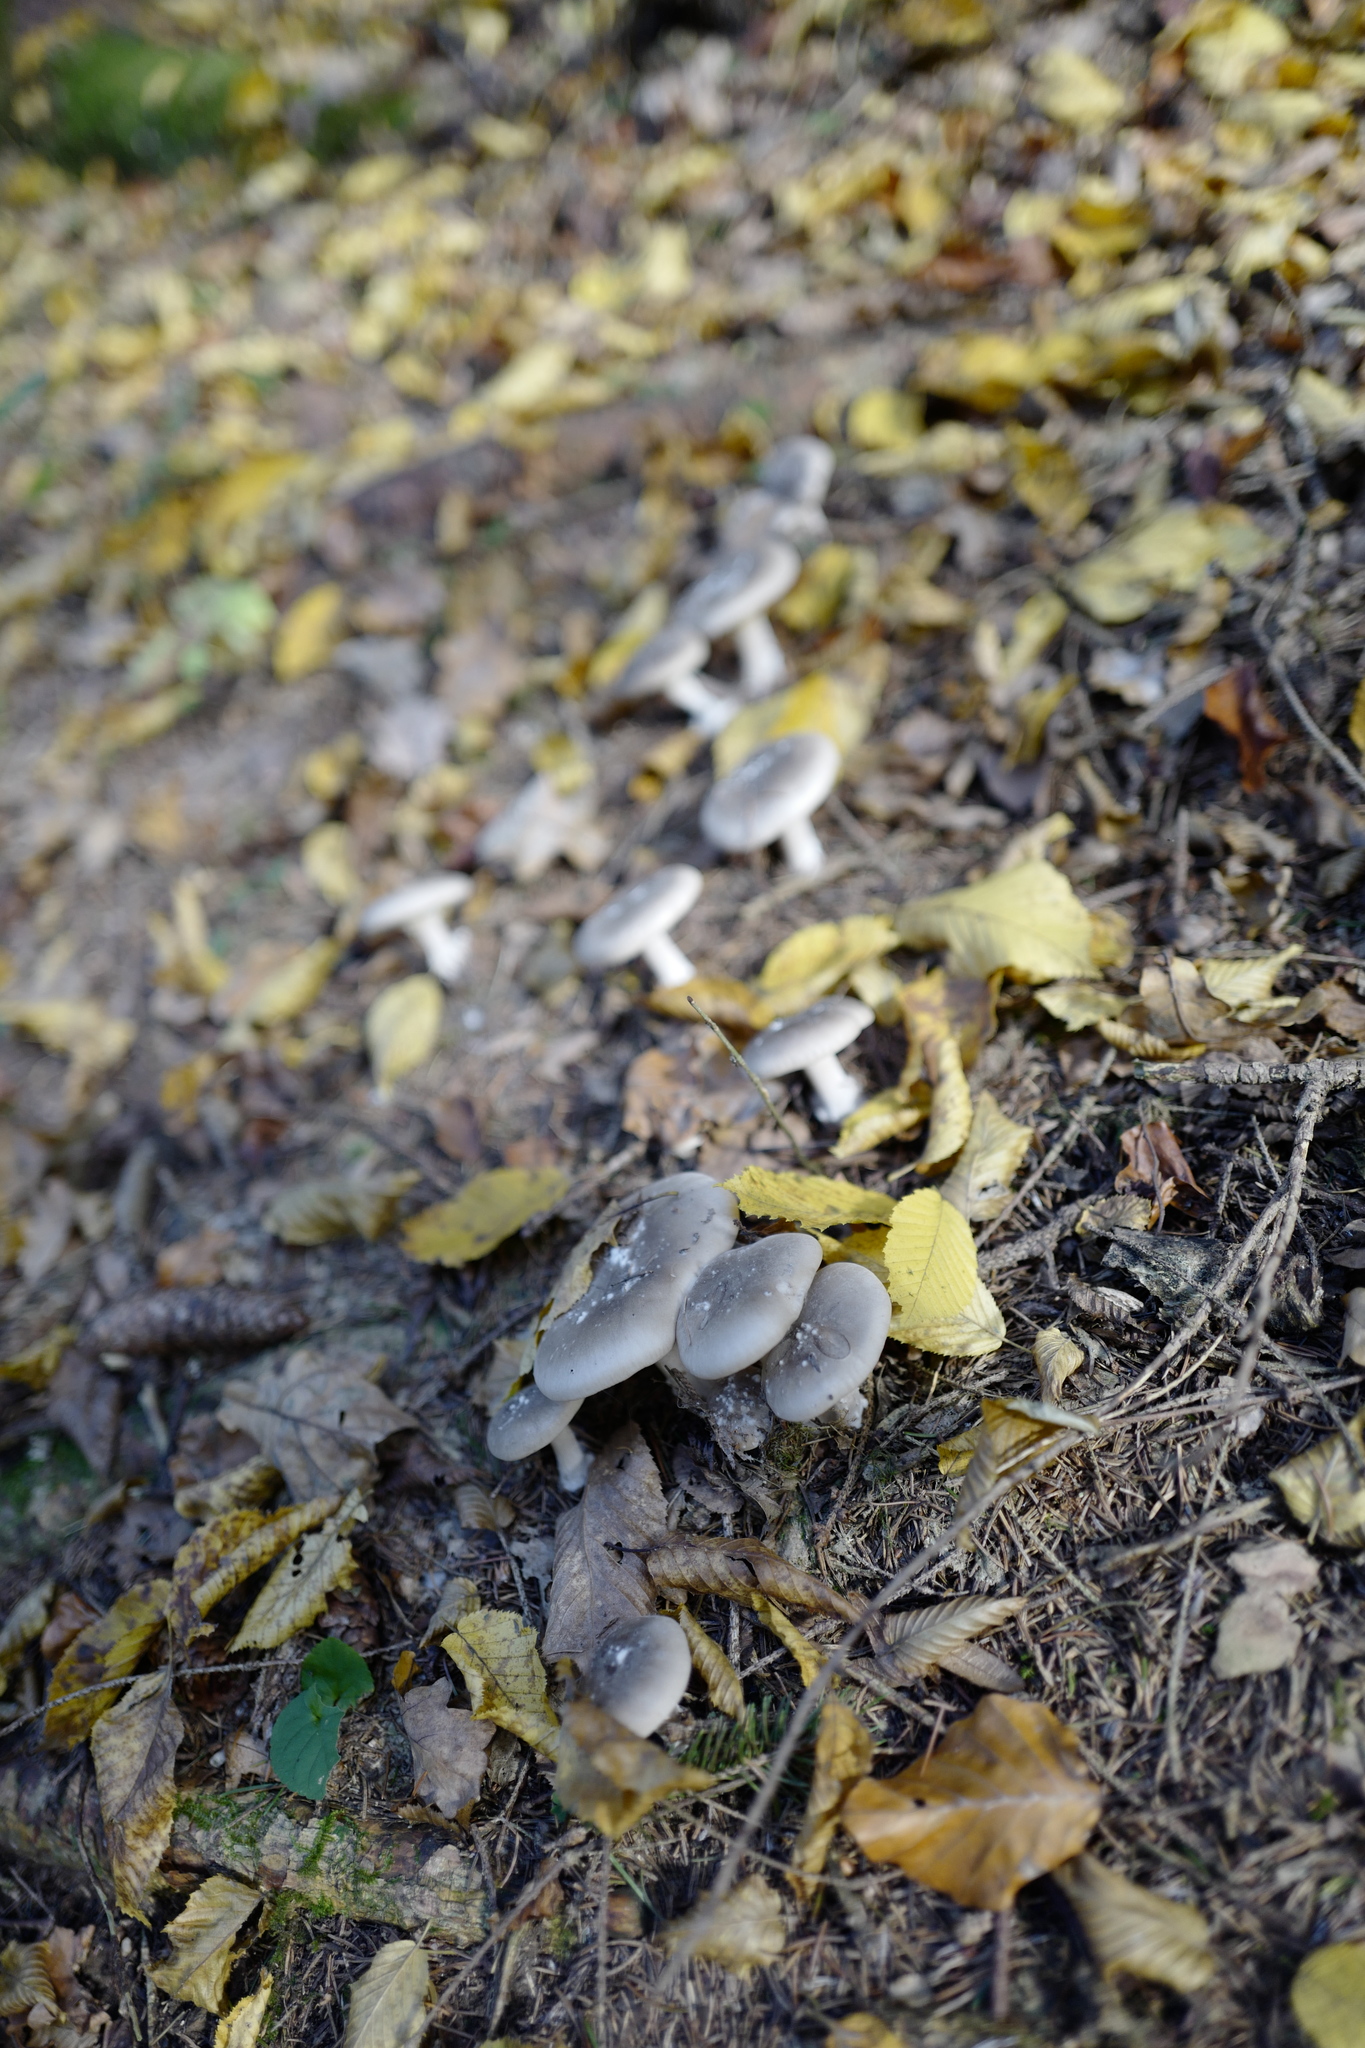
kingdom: Fungi
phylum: Basidiomycota
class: Agaricomycetes
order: Agaricales
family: Tricholomataceae
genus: Clitocybe
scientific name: Clitocybe nebularis
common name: Clouded agaric
